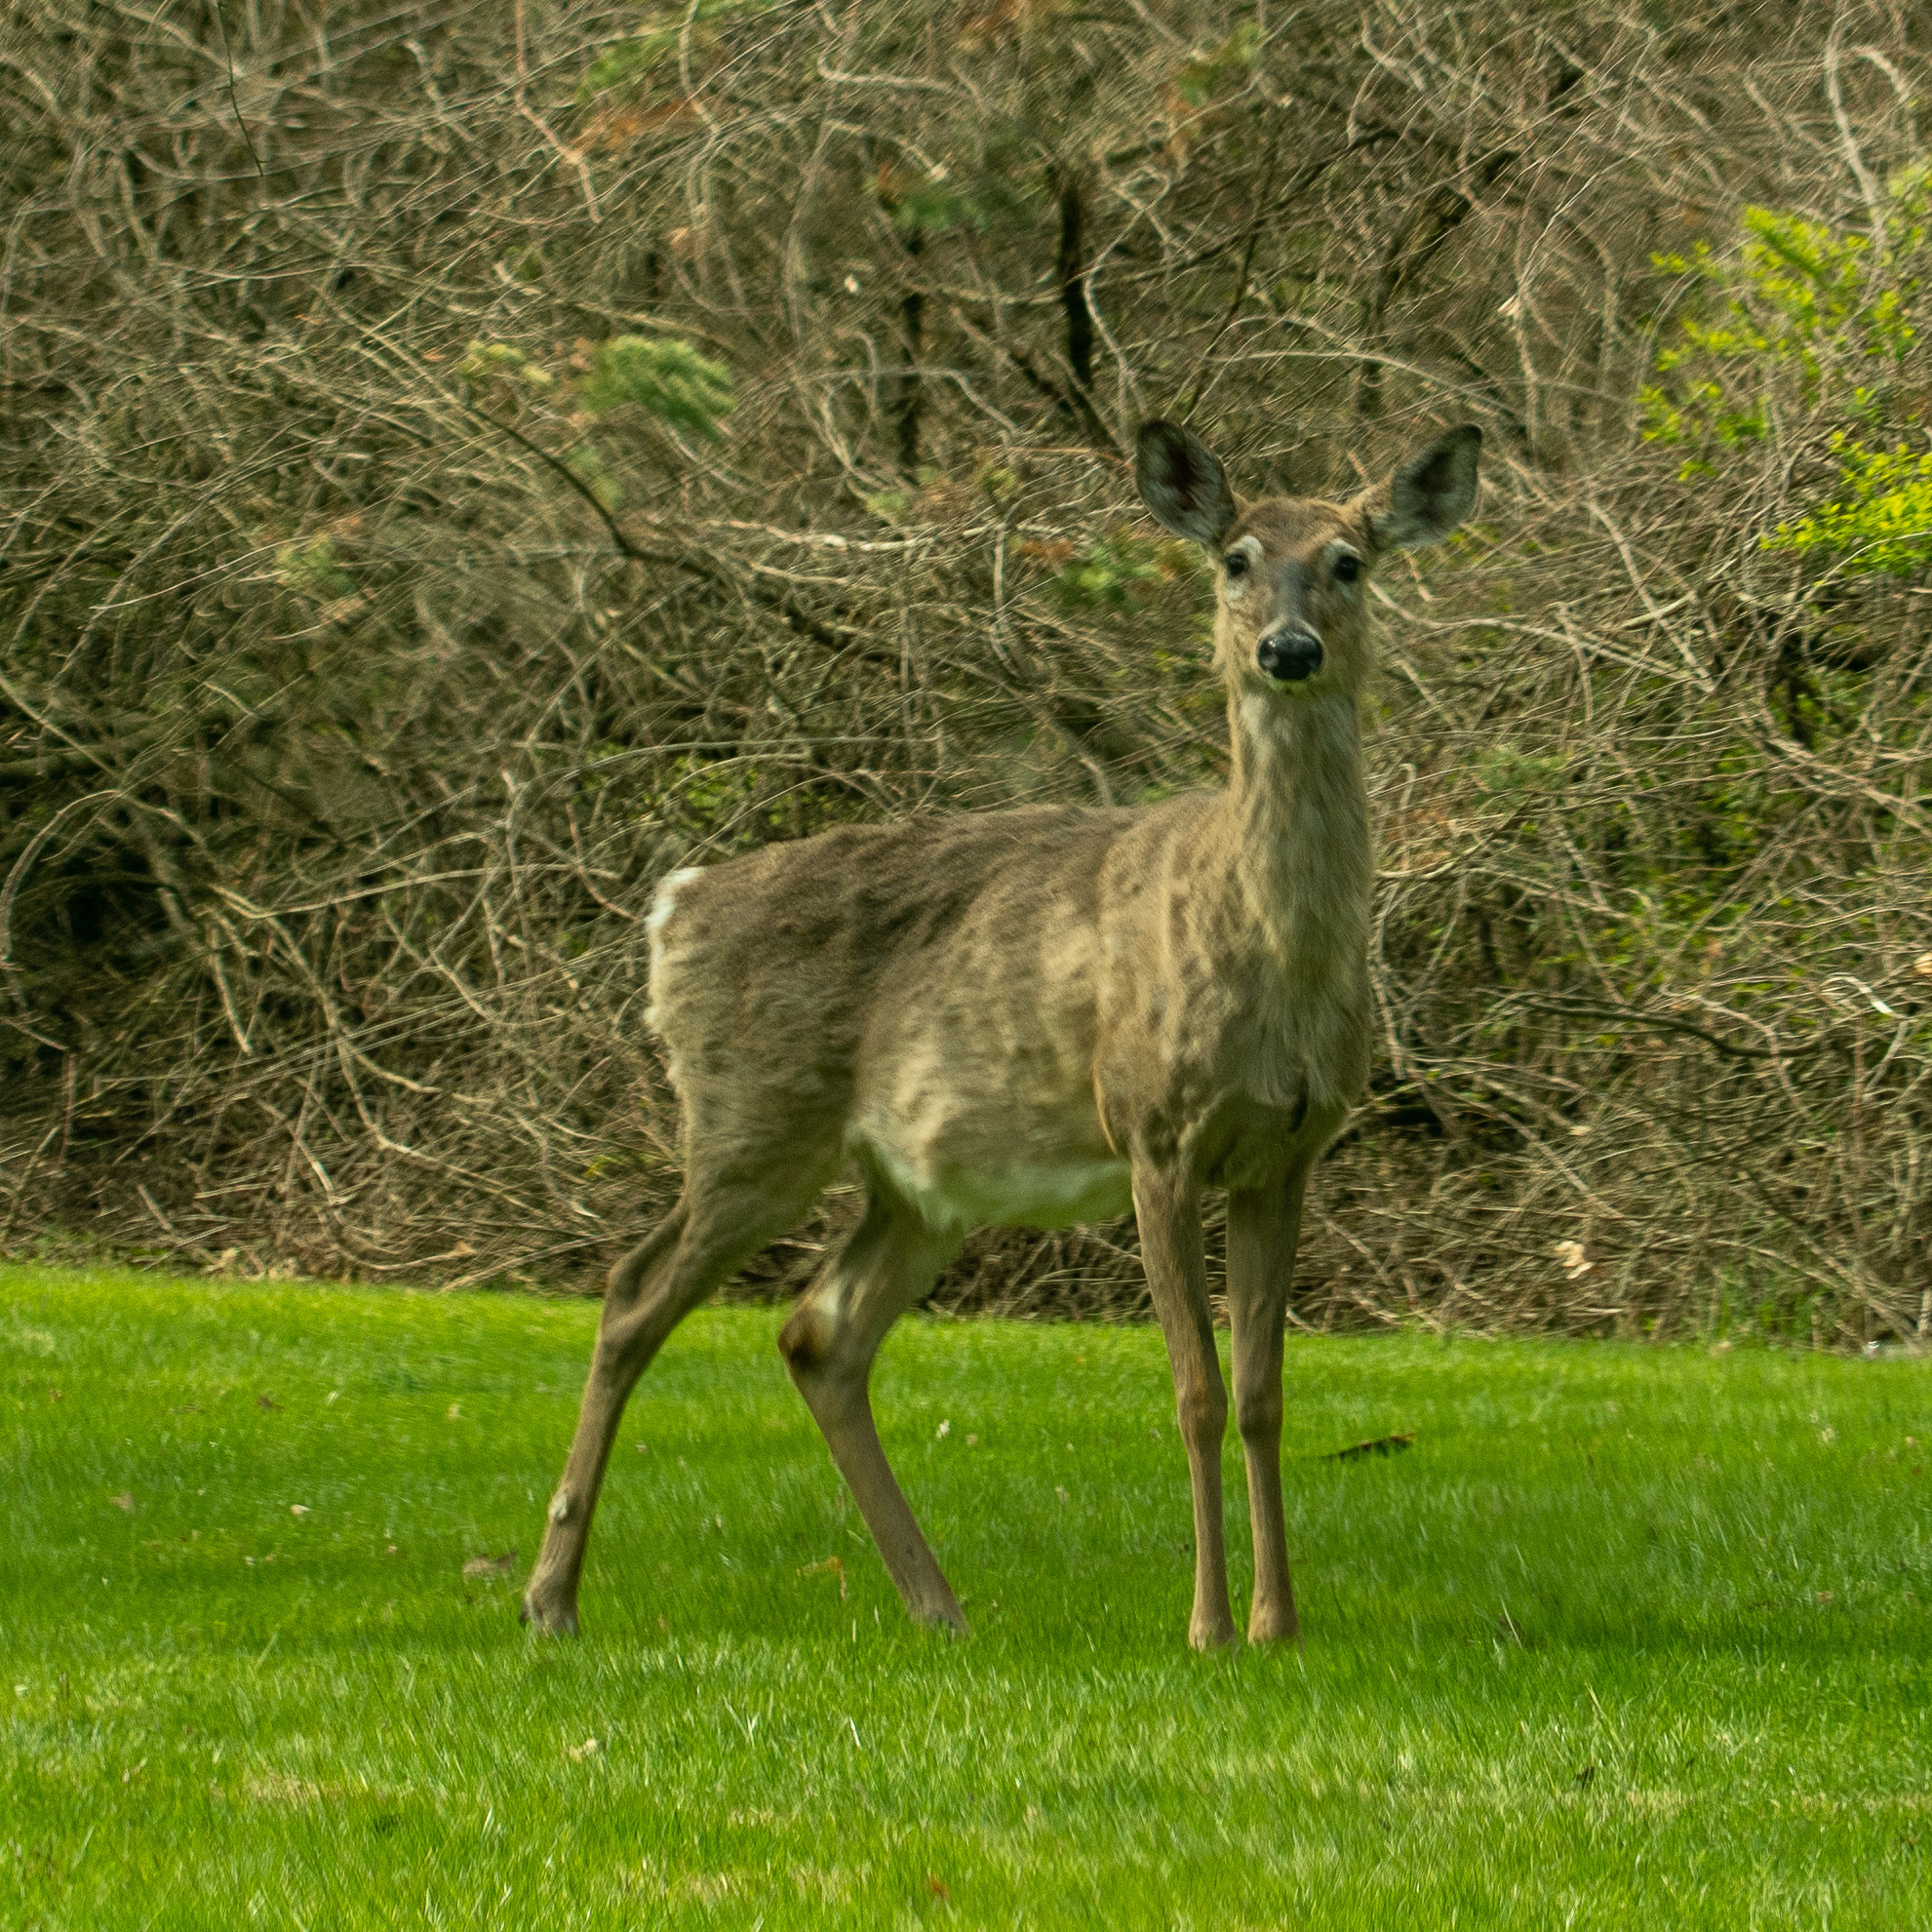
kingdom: Animalia
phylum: Chordata
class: Mammalia
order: Artiodactyla
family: Cervidae
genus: Odocoileus
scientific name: Odocoileus virginianus
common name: White-tailed deer
